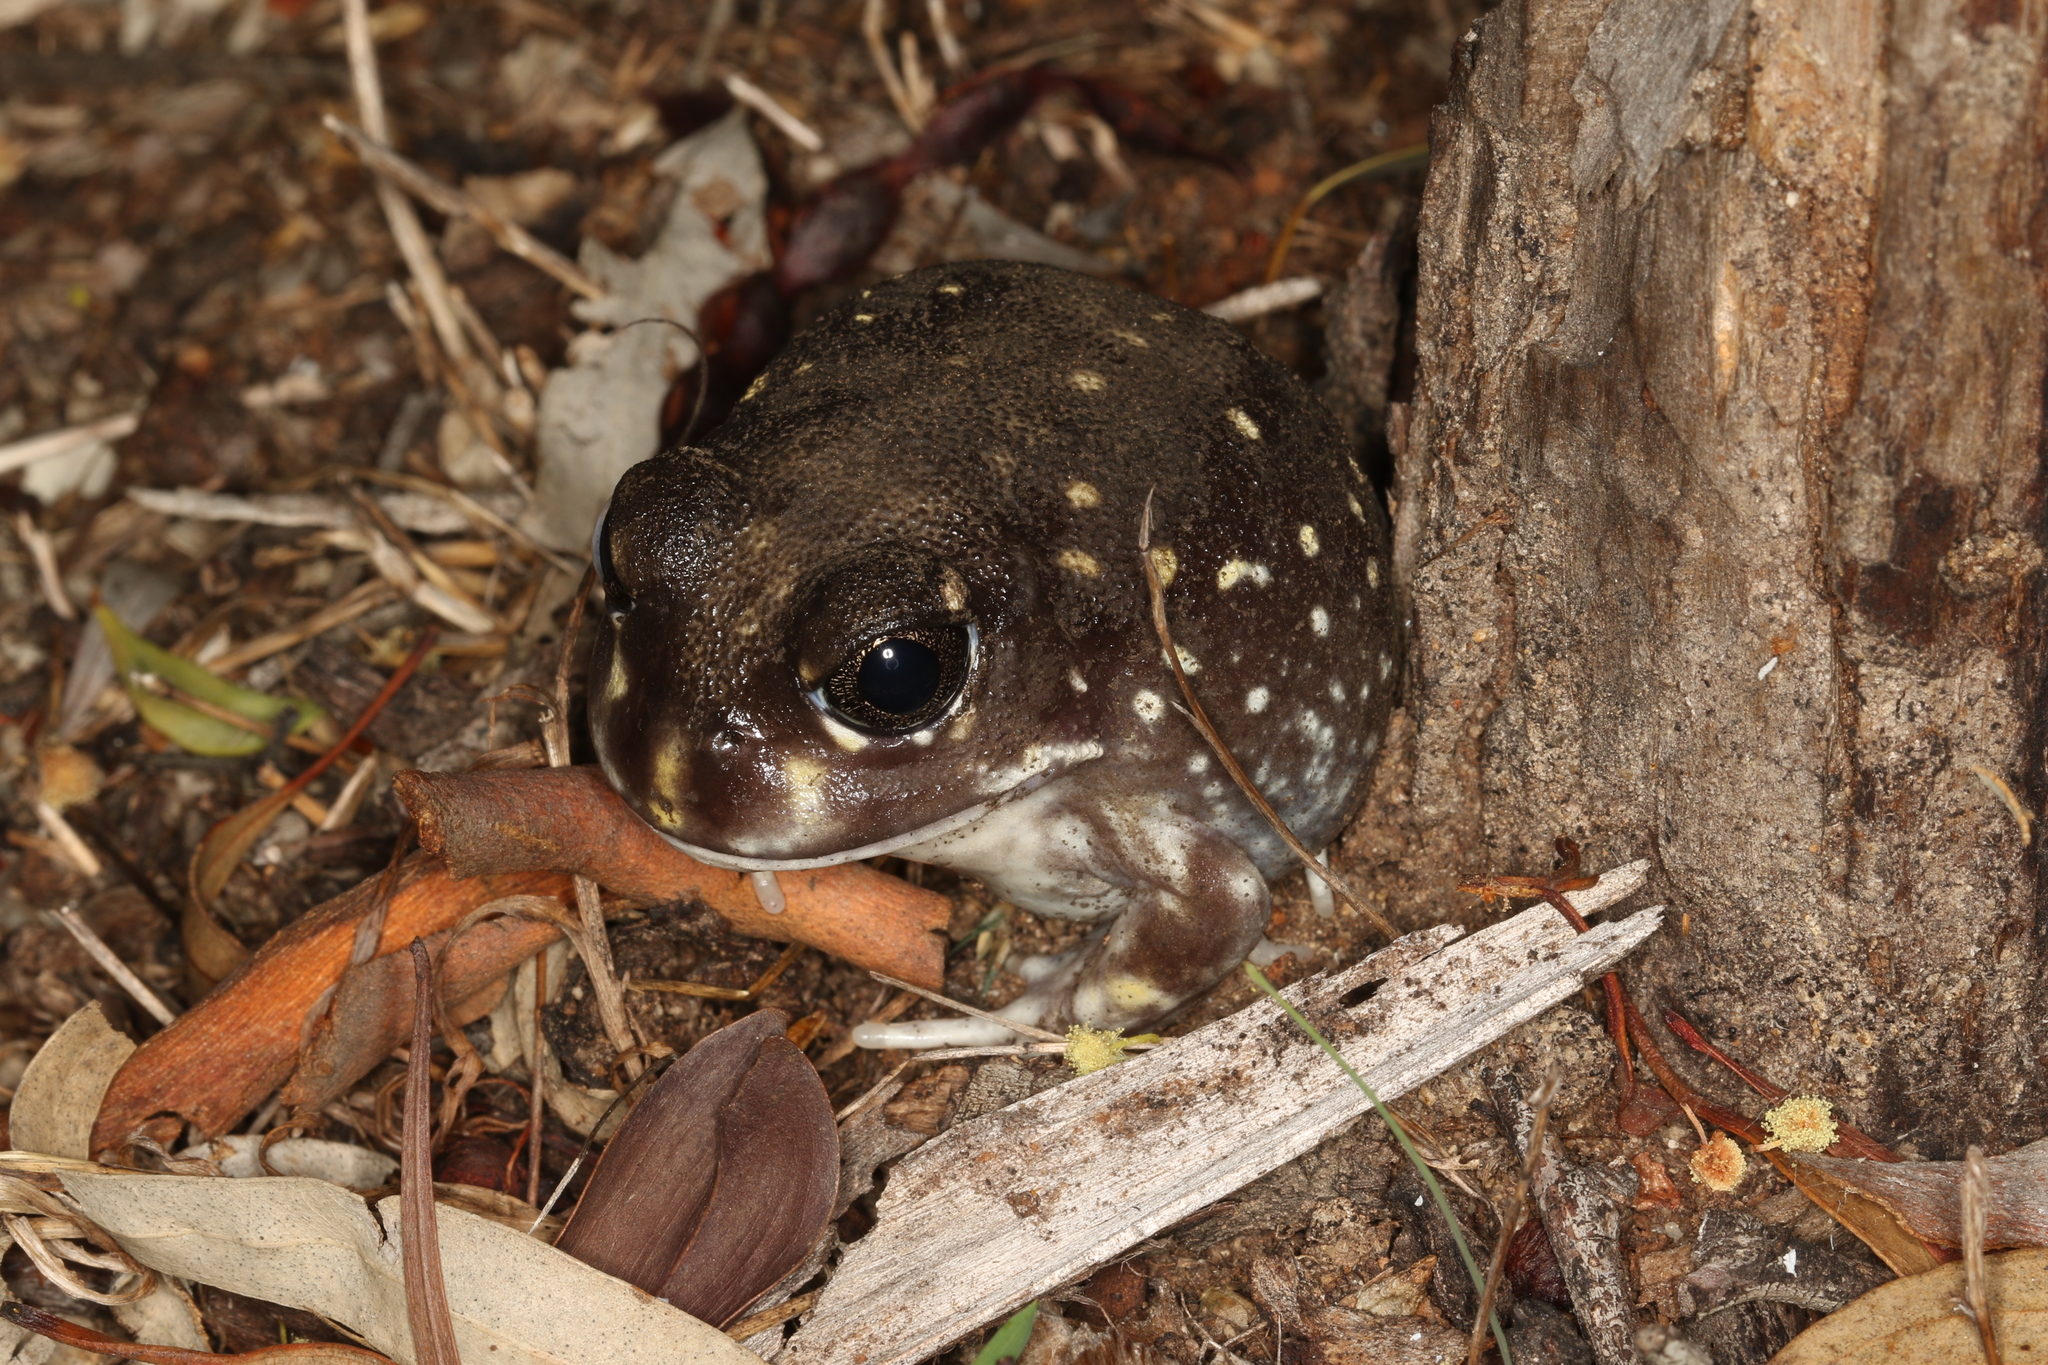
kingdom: Animalia
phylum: Chordata
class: Amphibia
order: Anura
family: Limnodynastidae
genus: Heleioporus
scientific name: Heleioporus albopunctatus
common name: Western spotted frog
